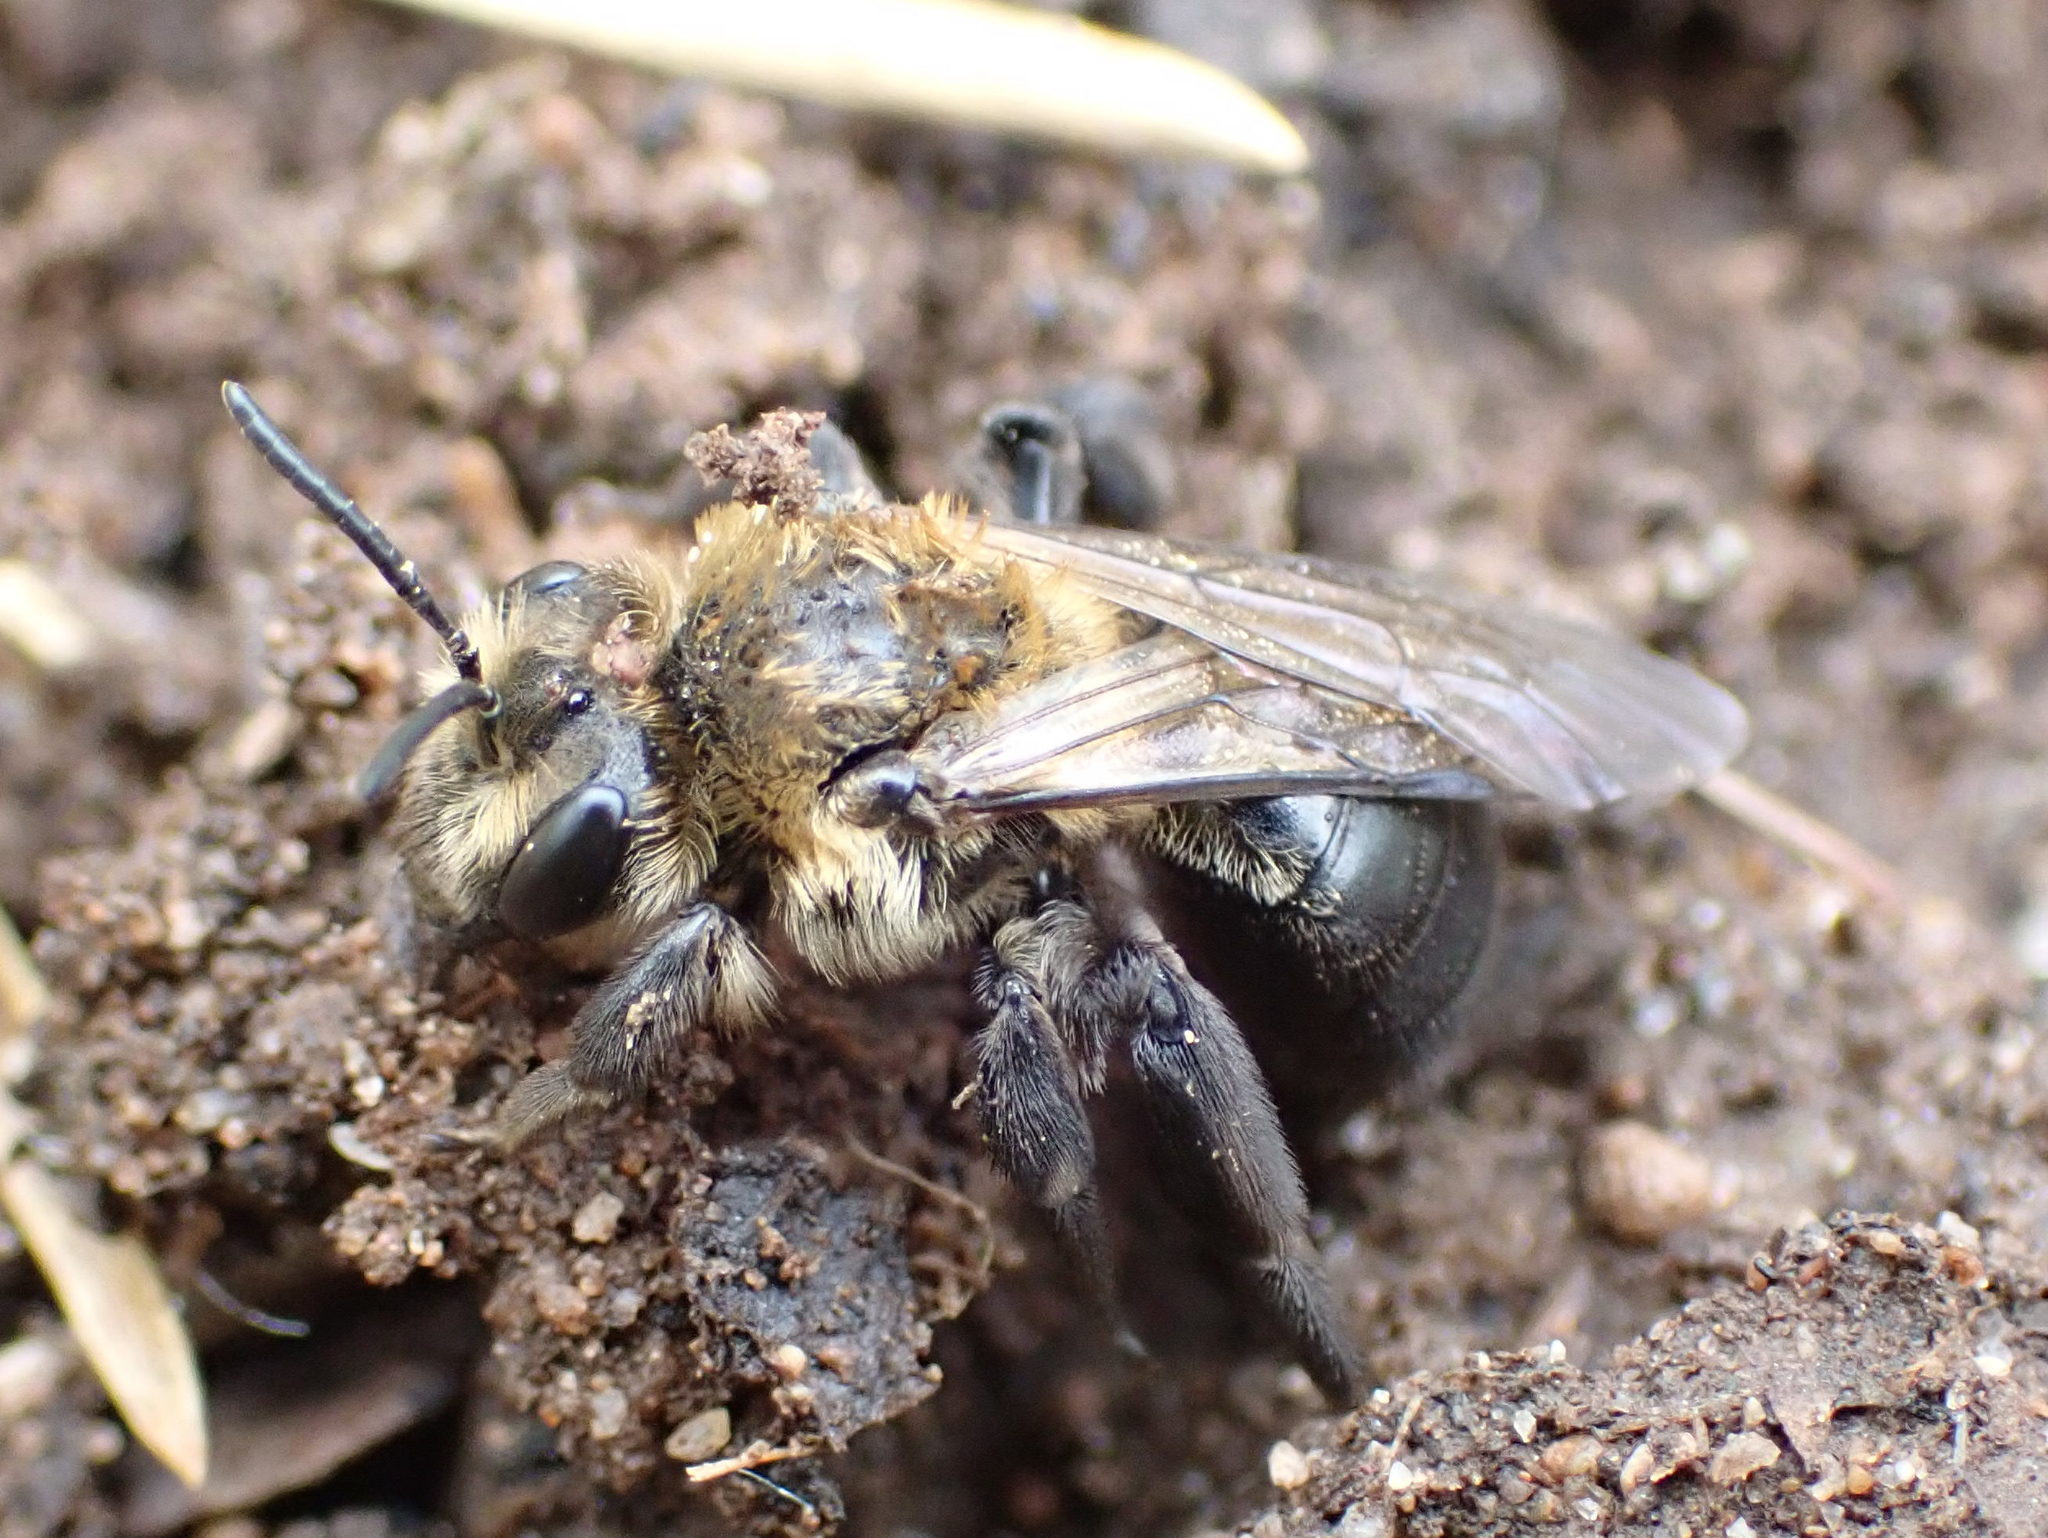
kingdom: Animalia
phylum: Arthropoda
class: Insecta
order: Hymenoptera
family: Andrenidae
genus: Andrena
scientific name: Andrena vicina
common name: Neighborly mining bee
